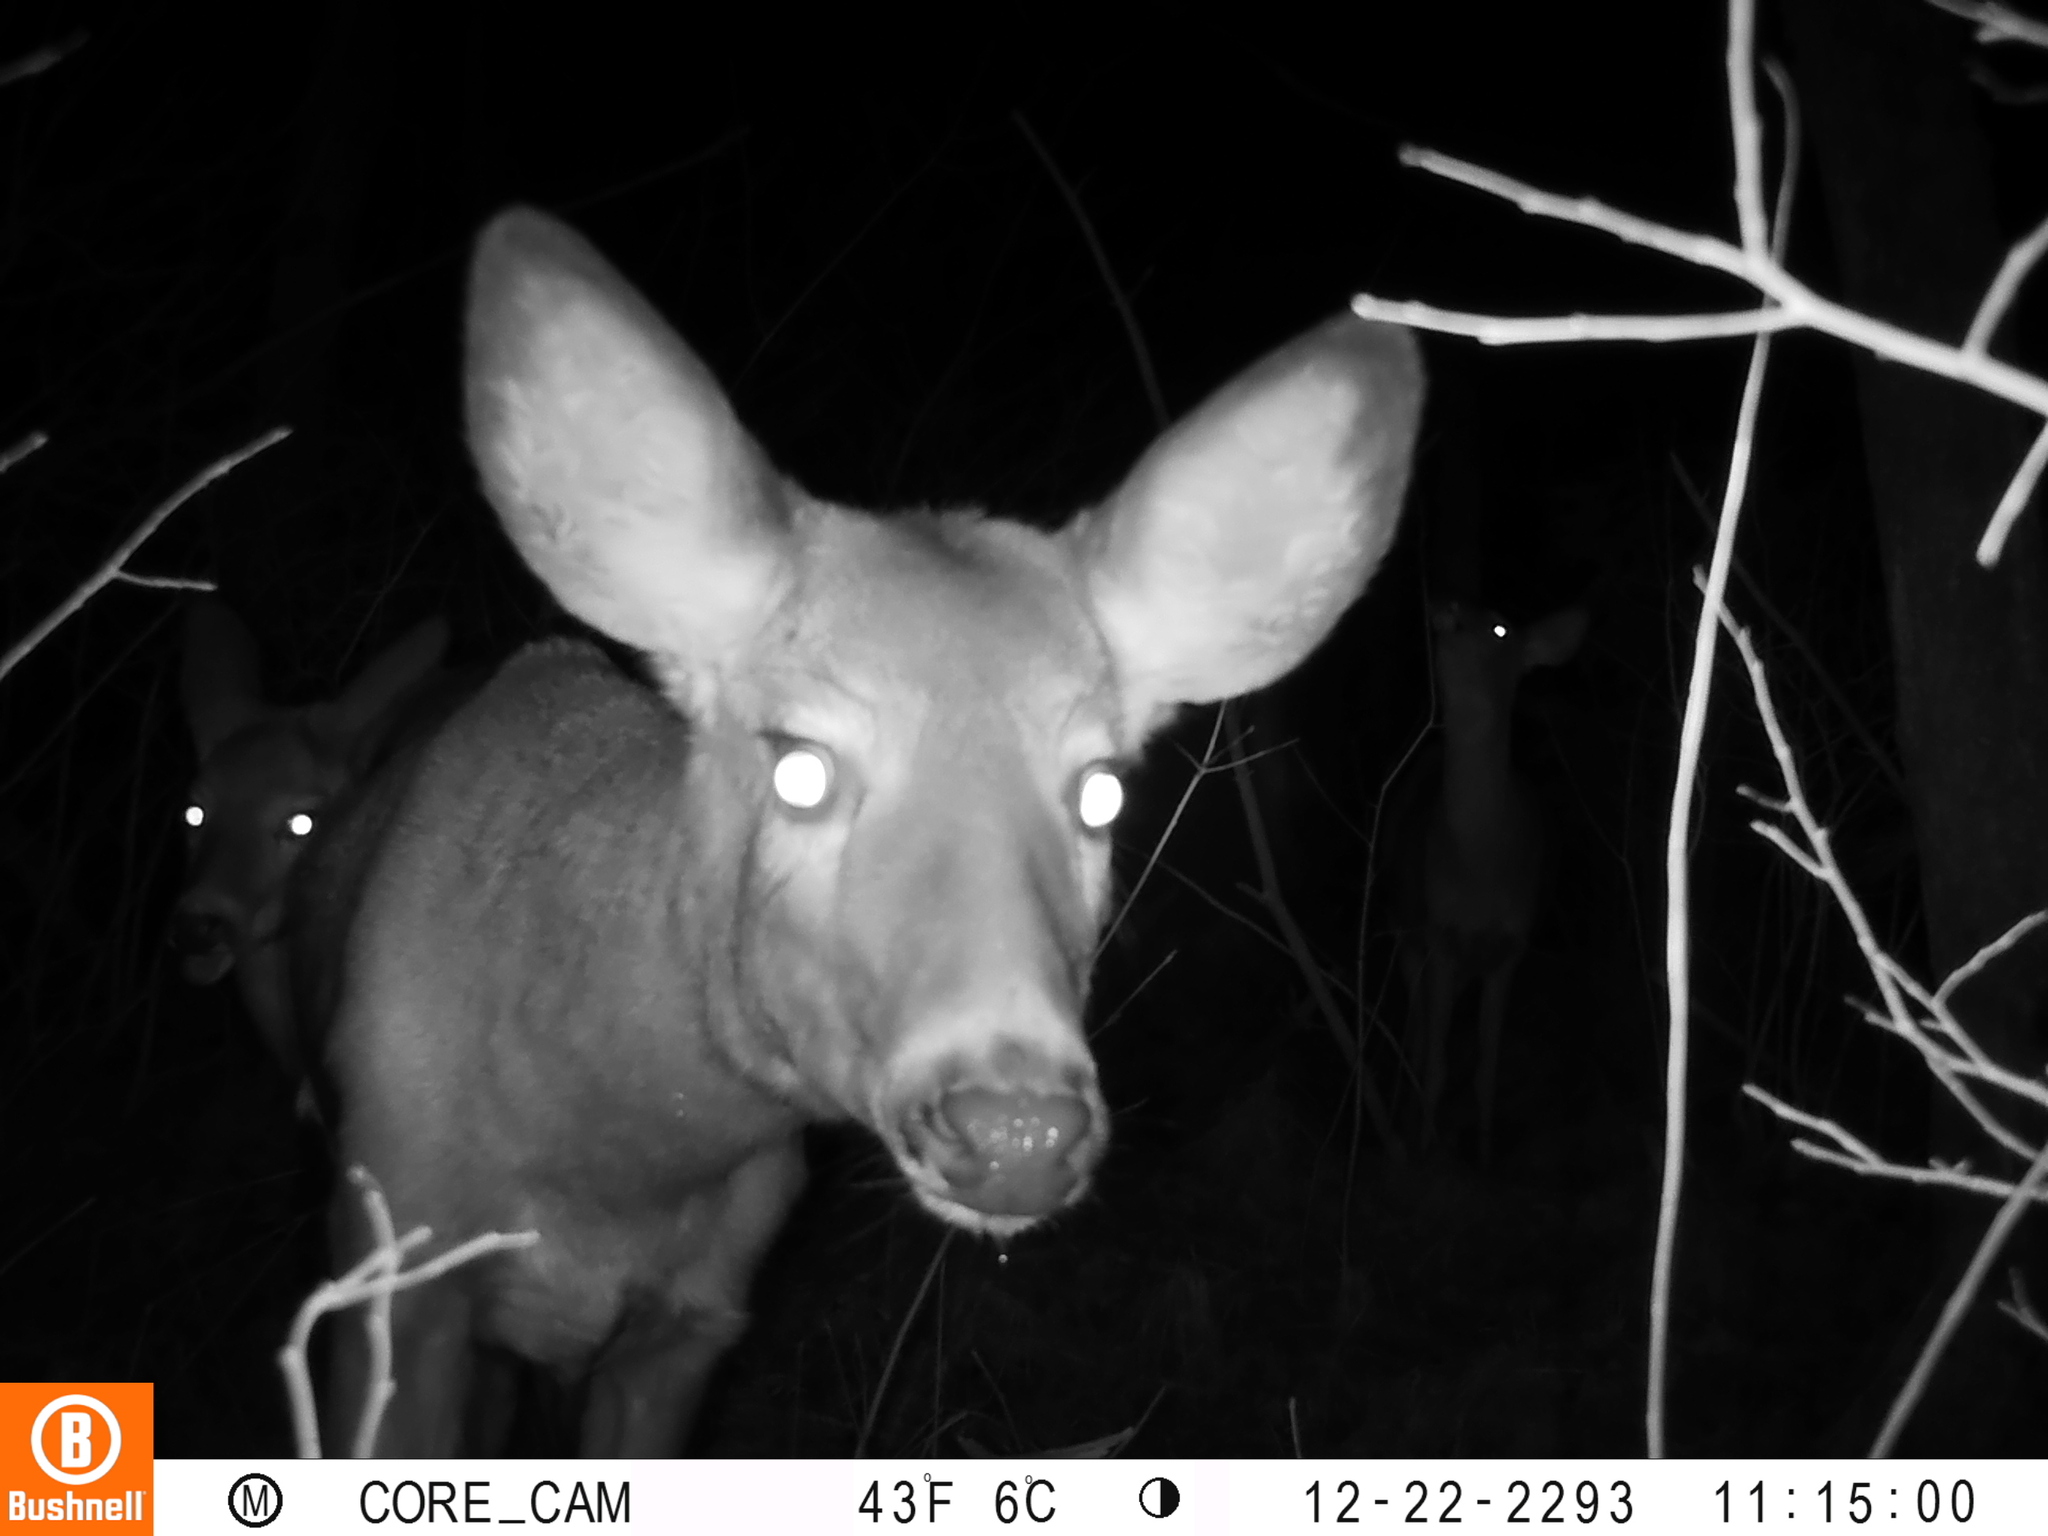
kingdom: Animalia
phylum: Chordata
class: Mammalia
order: Artiodactyla
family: Cervidae
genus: Odocoileus
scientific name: Odocoileus virginianus
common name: White-tailed deer
